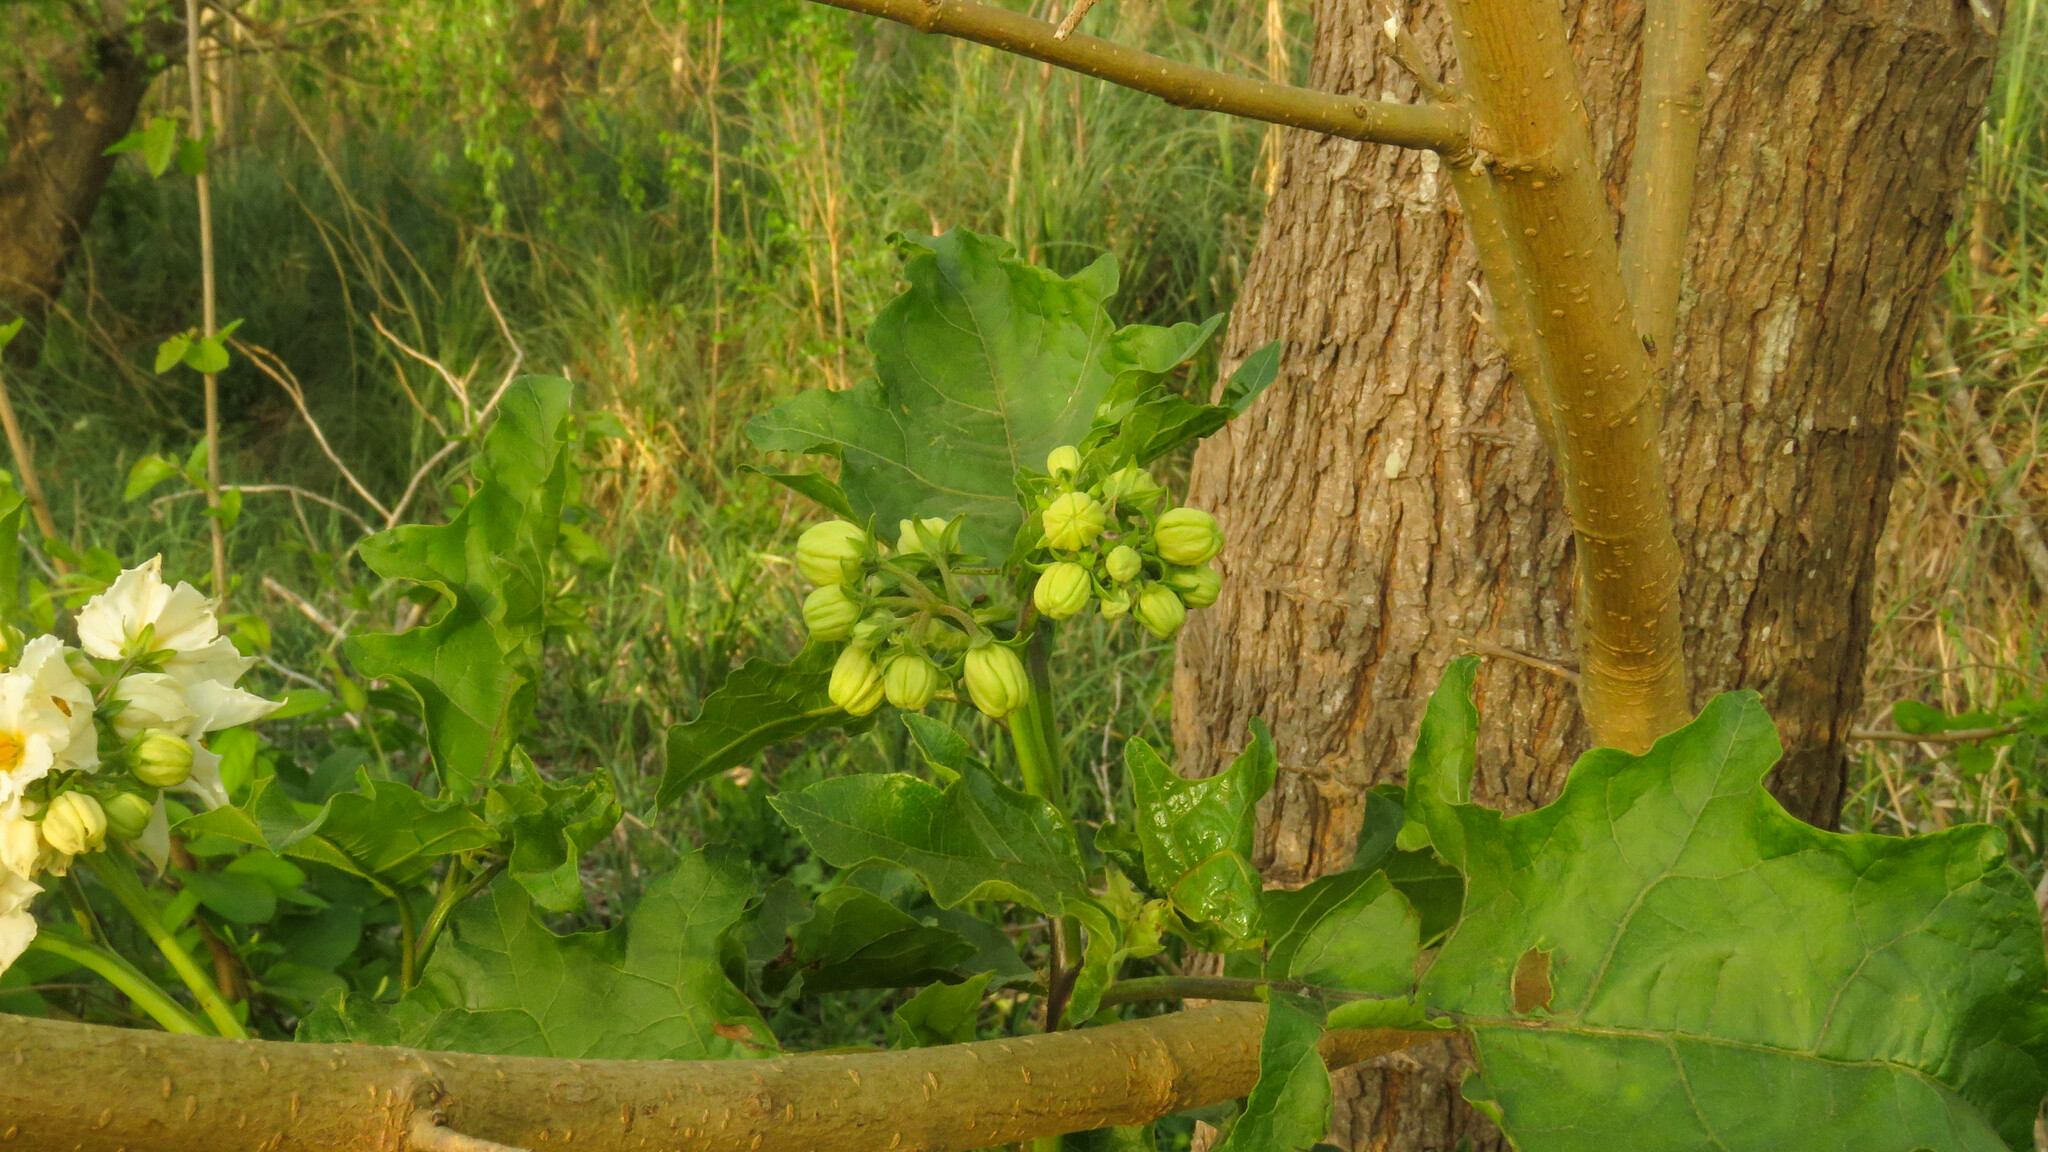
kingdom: Plantae
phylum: Tracheophyta
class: Magnoliopsida
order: Solanales
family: Solanaceae
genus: Solanum
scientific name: Solanum bonariense
